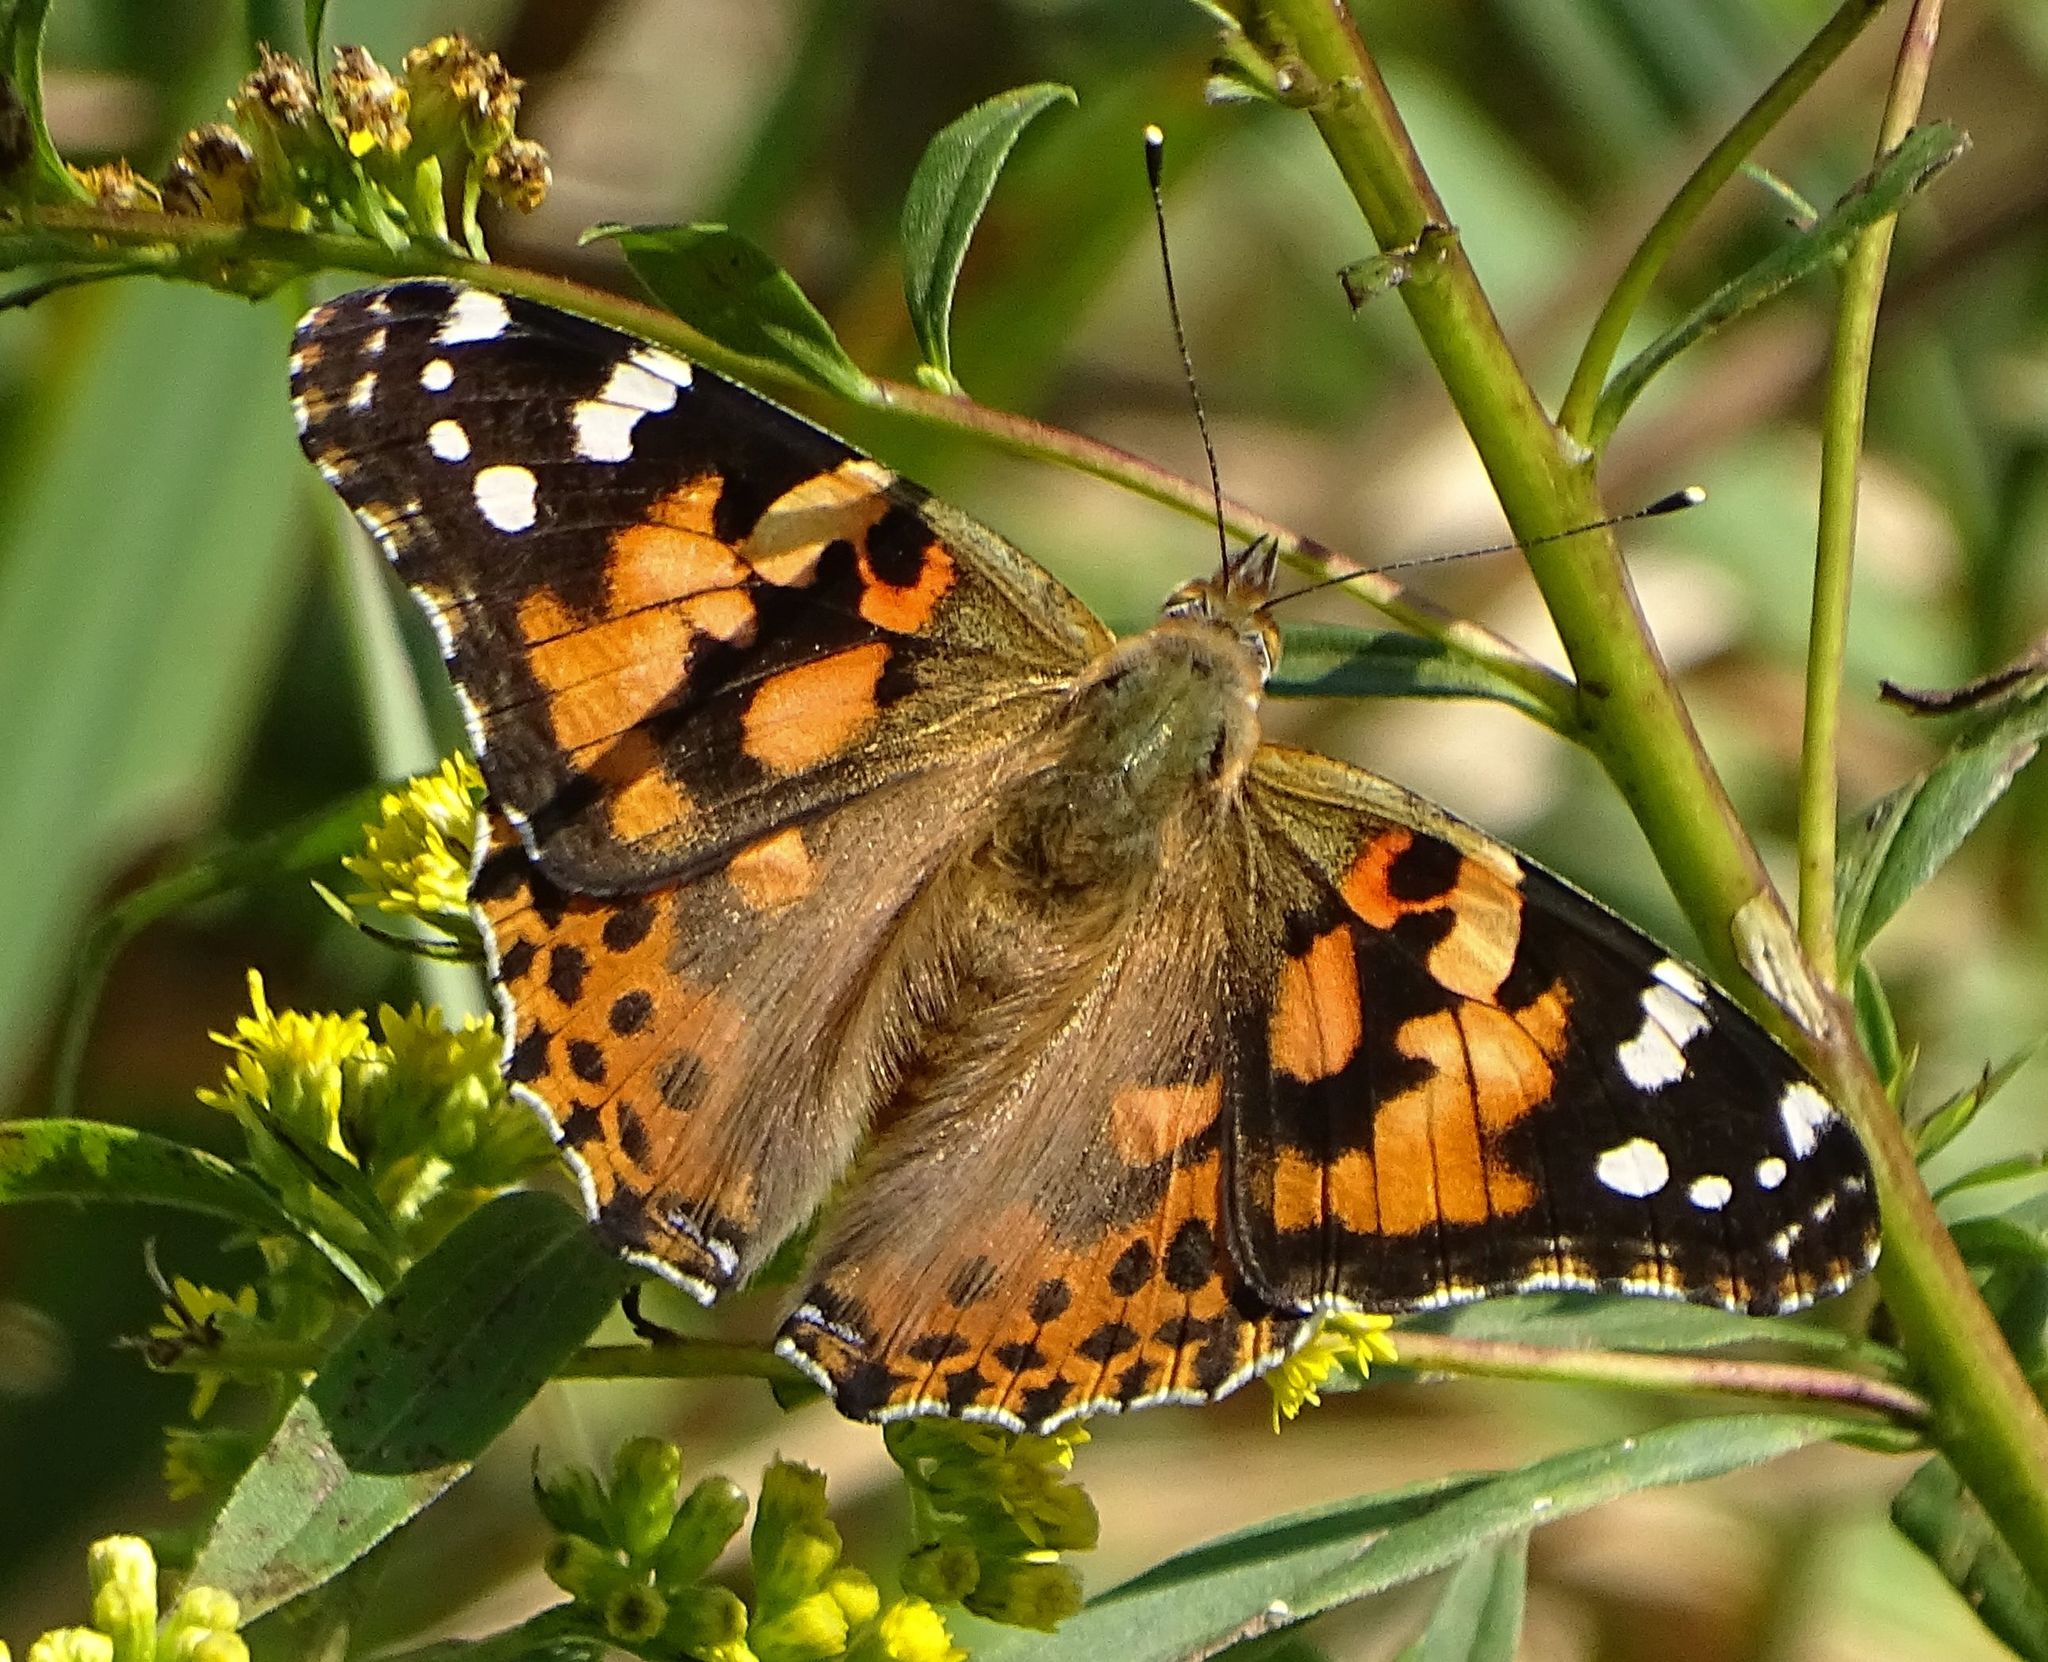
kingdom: Animalia
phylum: Arthropoda
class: Insecta
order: Lepidoptera
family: Nymphalidae
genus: Vanessa
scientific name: Vanessa cardui
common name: Painted lady
